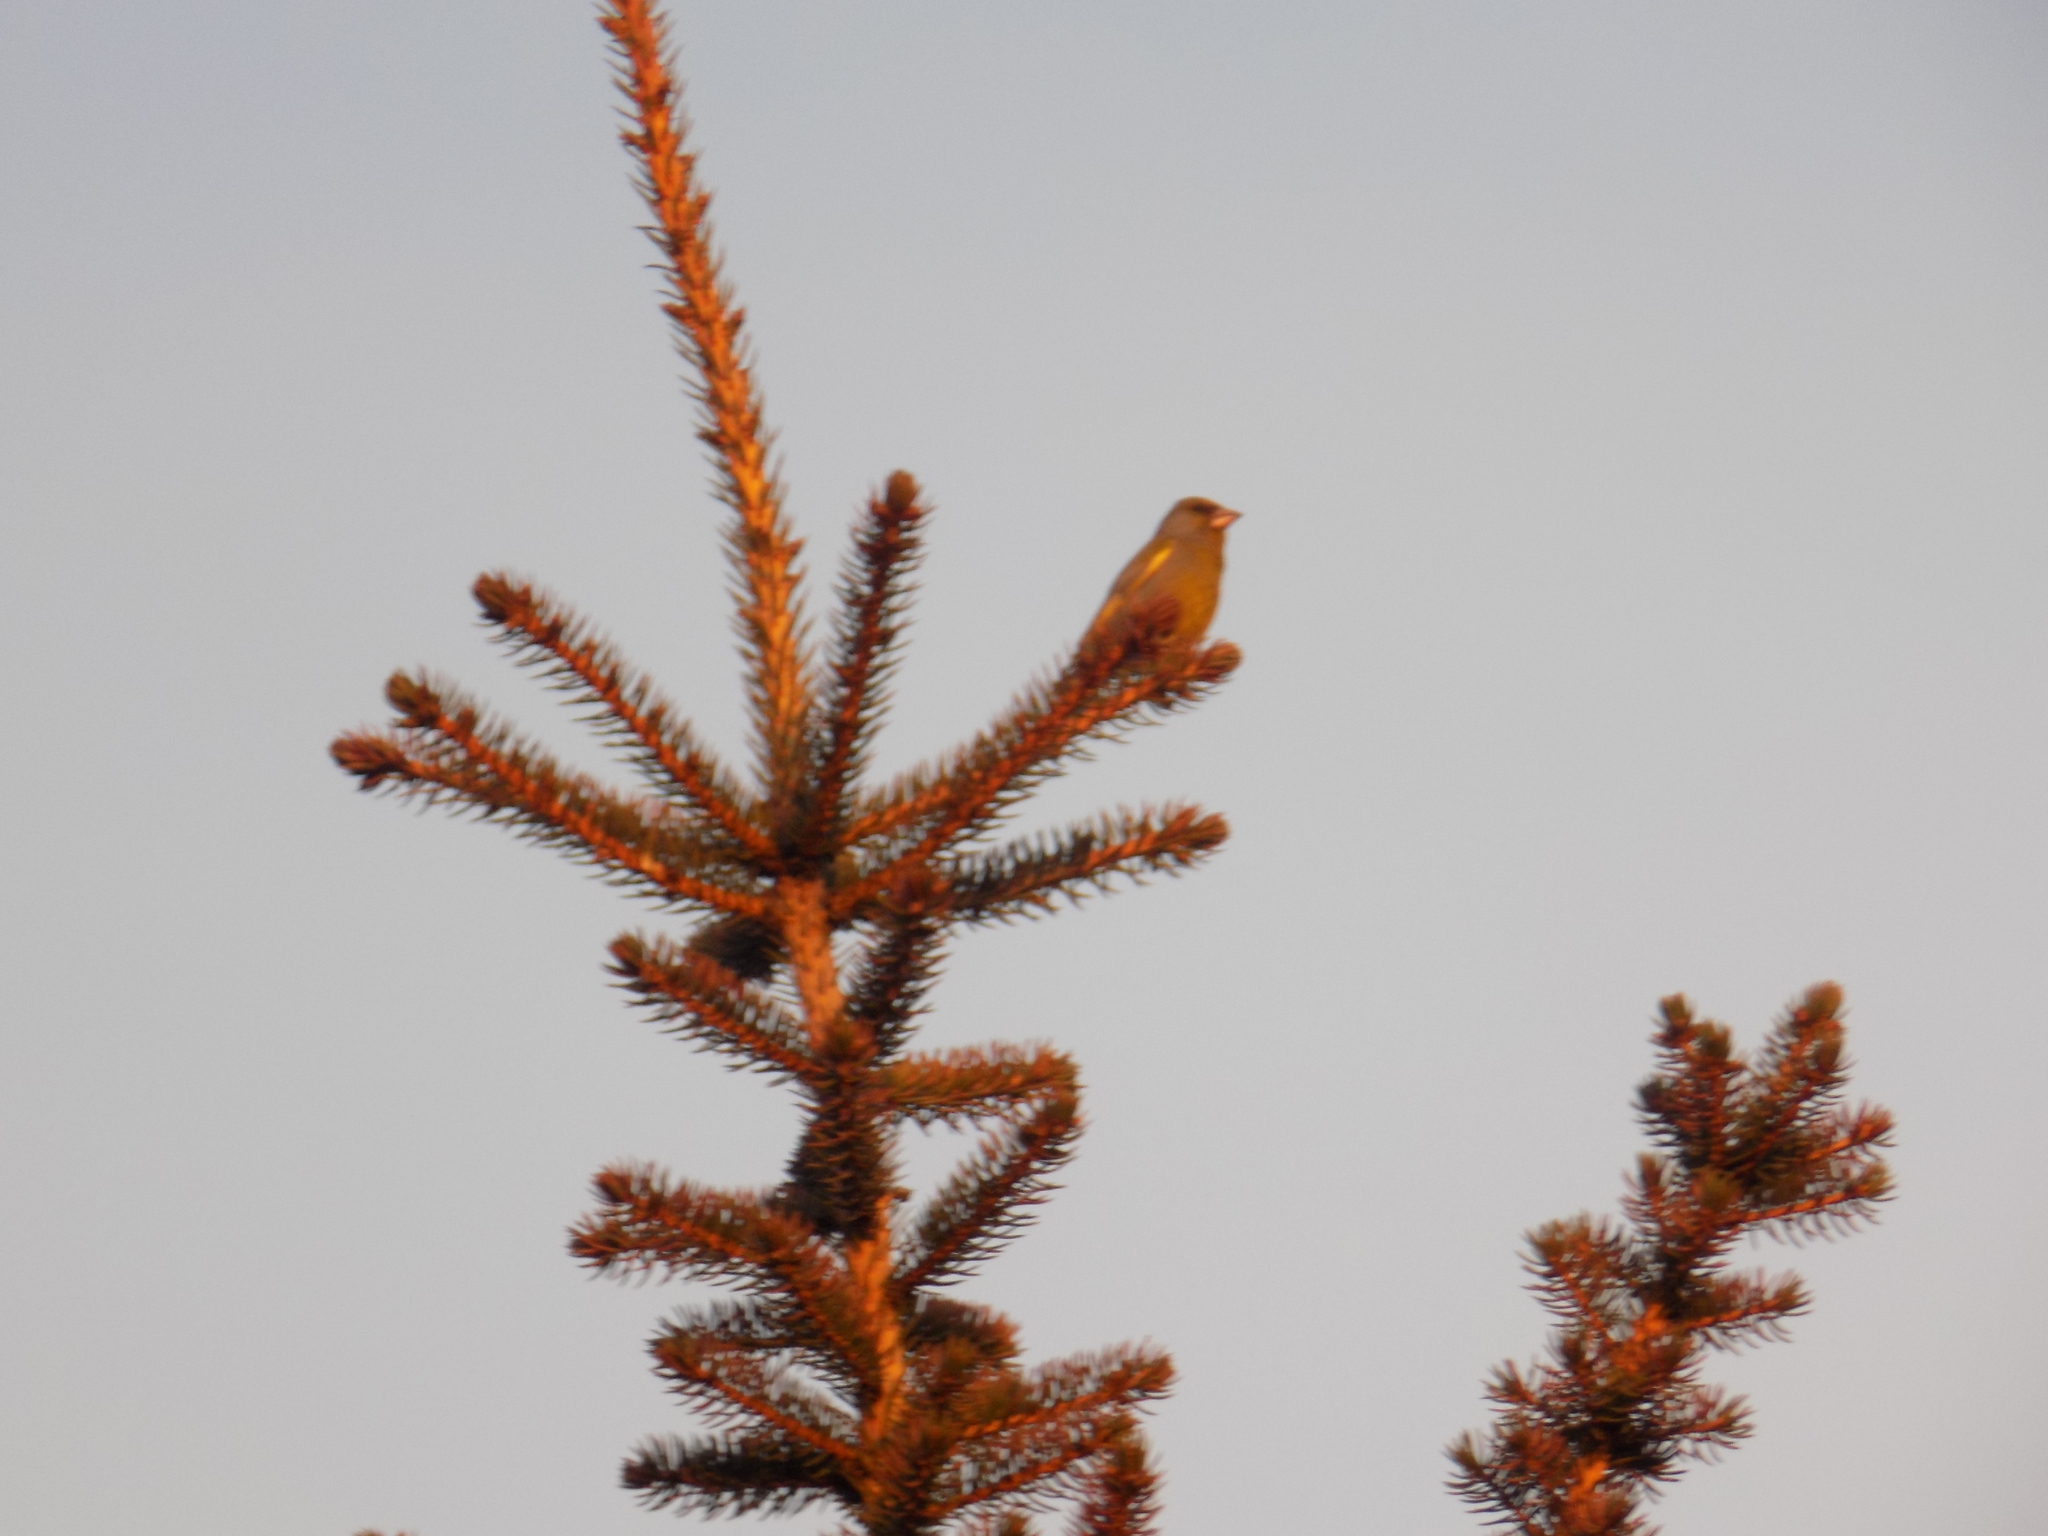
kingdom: Plantae
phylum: Tracheophyta
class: Liliopsida
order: Poales
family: Poaceae
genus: Chloris
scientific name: Chloris chloris
